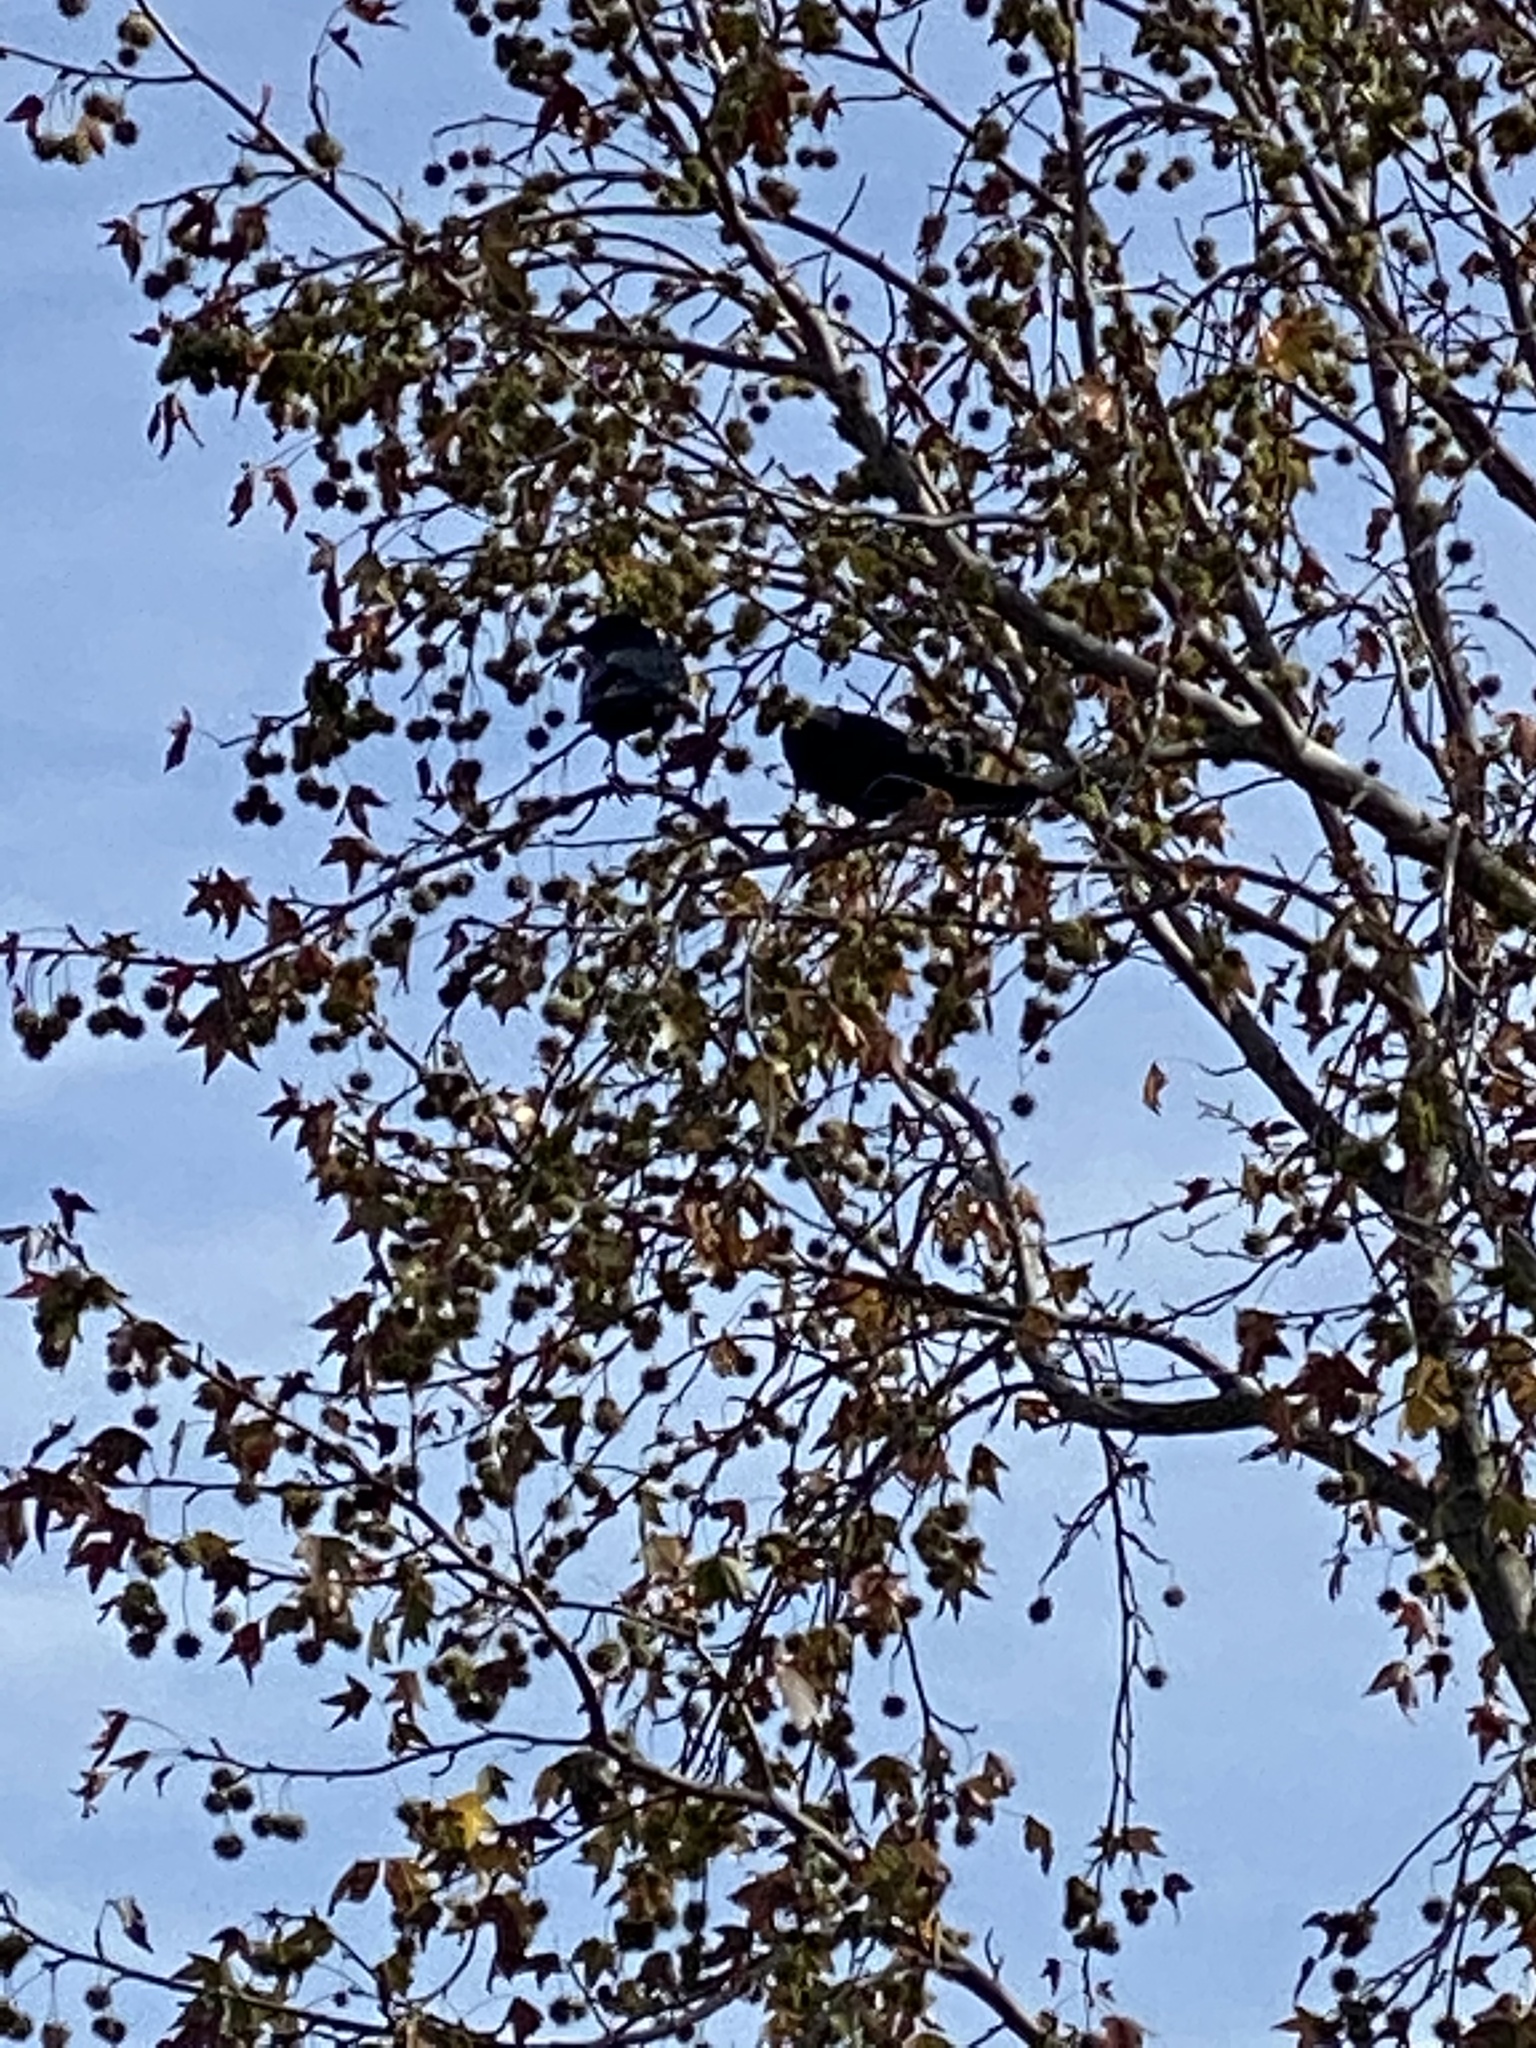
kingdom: Animalia
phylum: Chordata
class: Aves
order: Passeriformes
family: Corvidae
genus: Corvus
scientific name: Corvus brachyrhynchos
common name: American crow
